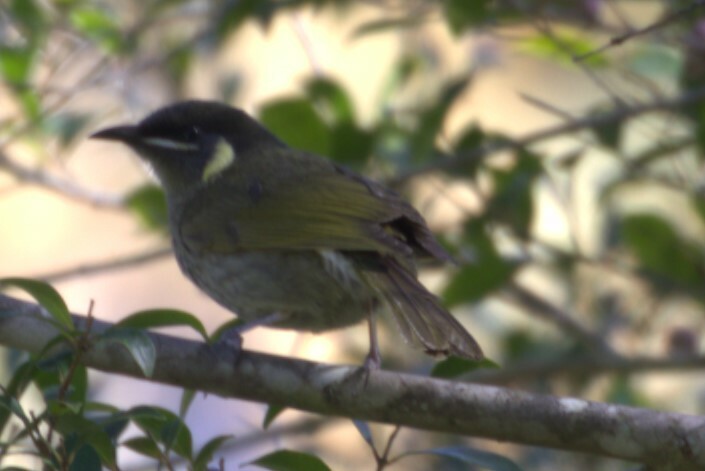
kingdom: Animalia
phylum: Chordata
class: Aves
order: Passeriformes
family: Meliphagidae
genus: Meliphaga
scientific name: Meliphaga lewinii
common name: Lewin's honeyeater
